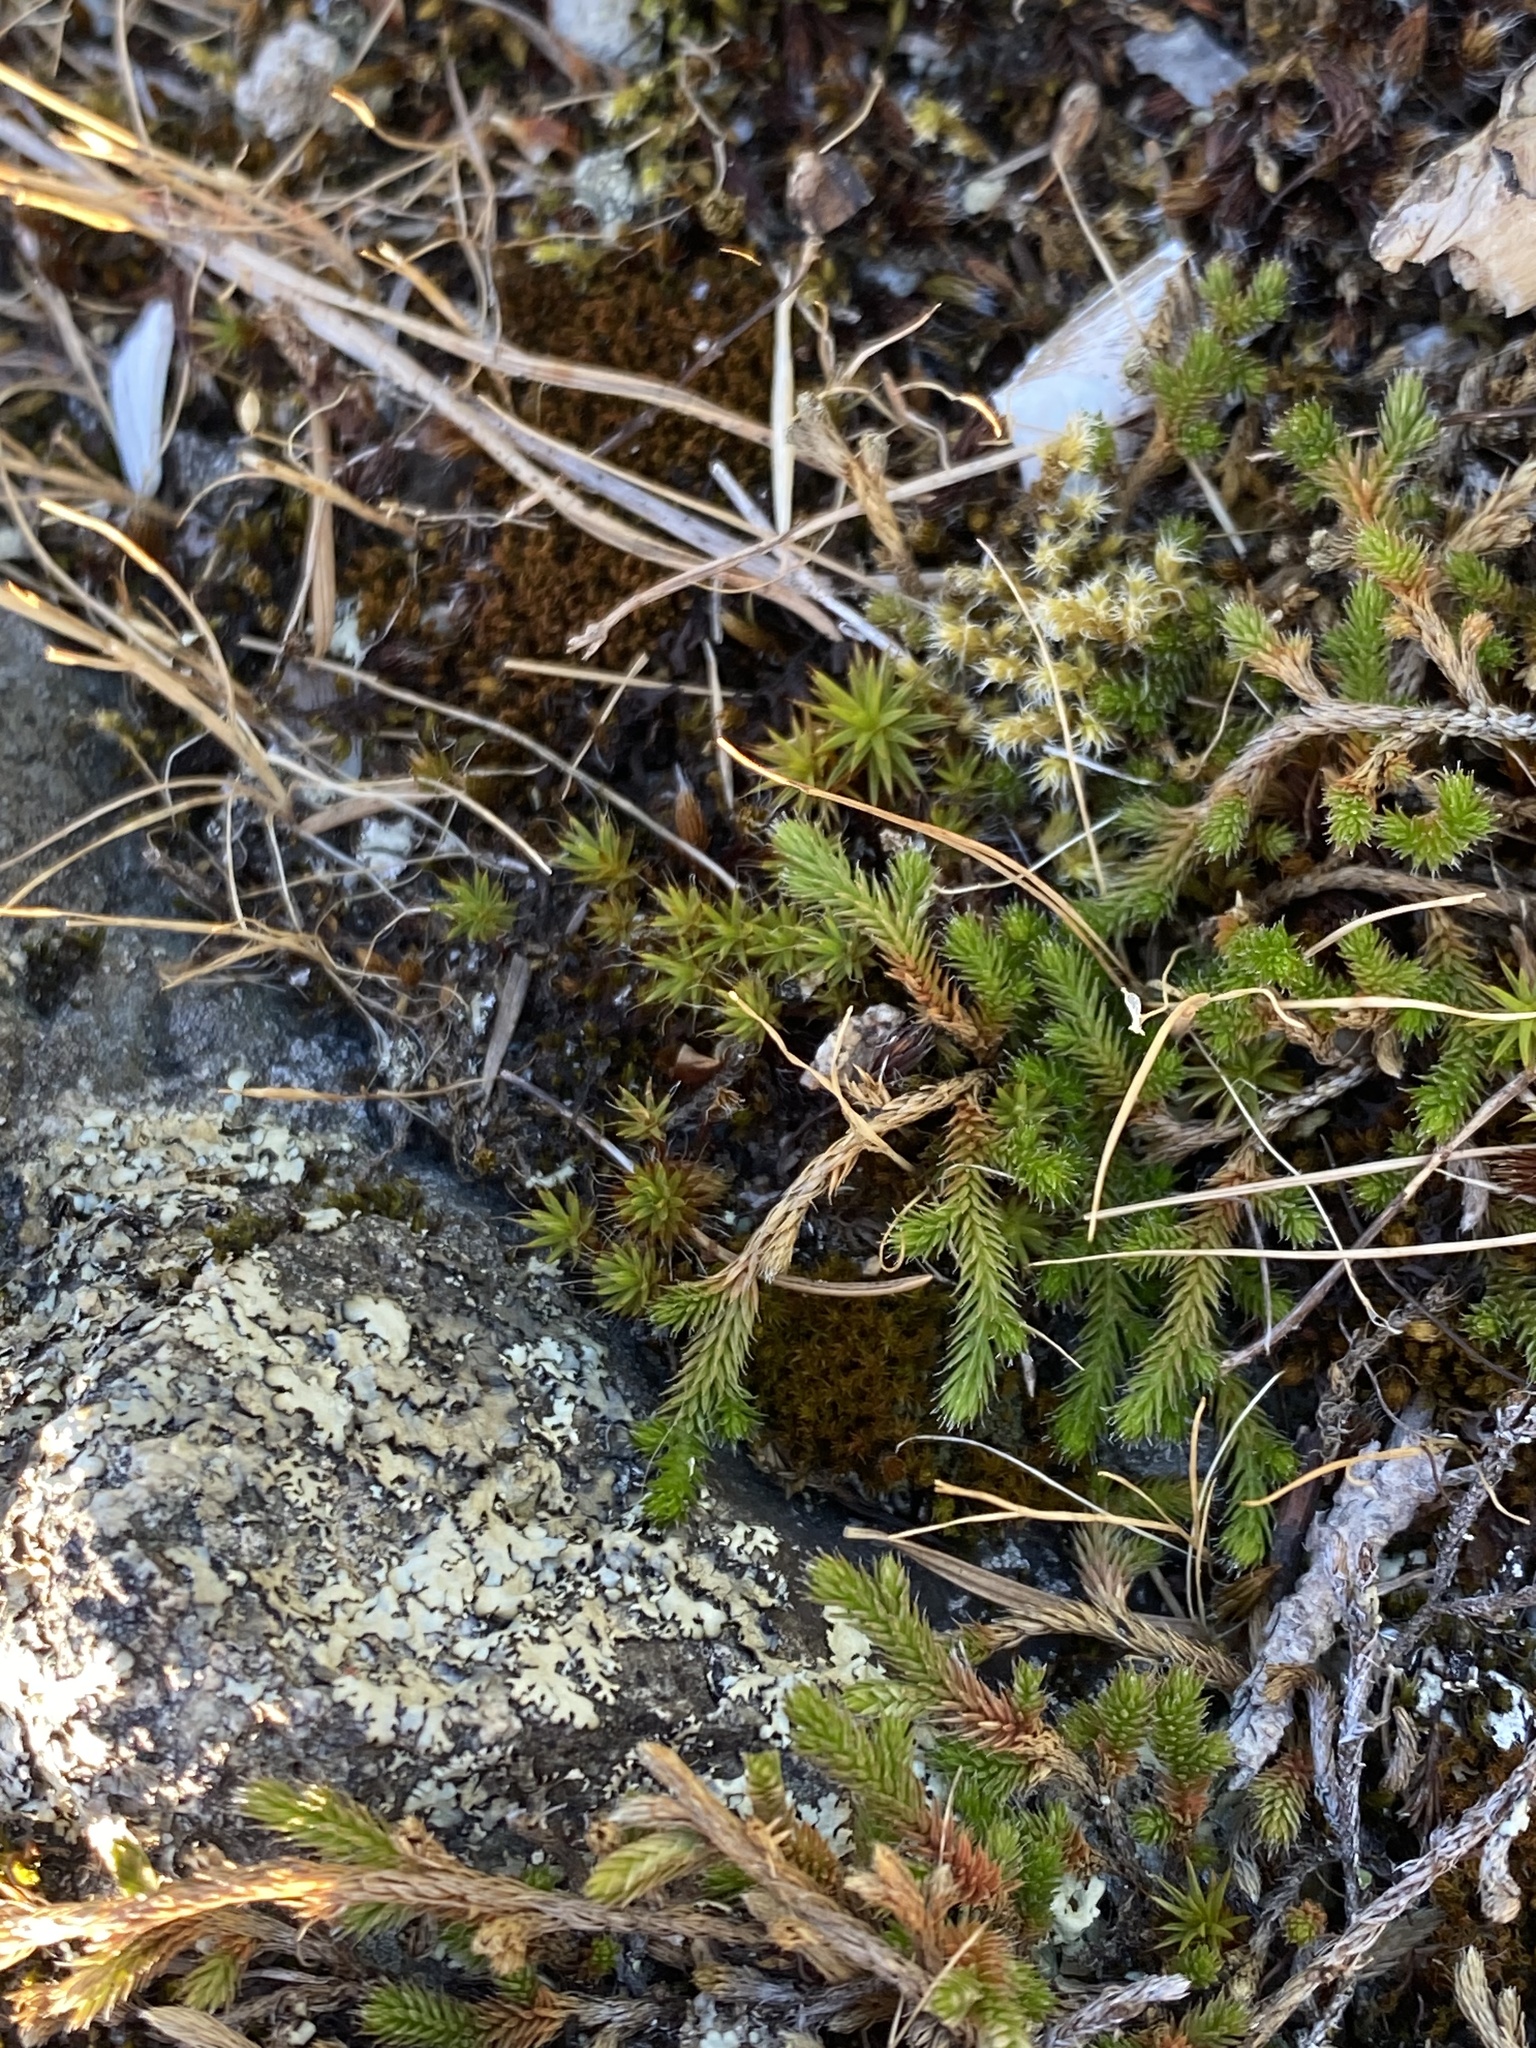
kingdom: Plantae
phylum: Tracheophyta
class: Lycopodiopsida
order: Selaginellales
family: Selaginellaceae
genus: Selaginella
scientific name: Selaginella wallacei
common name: Wallace's selaginella
